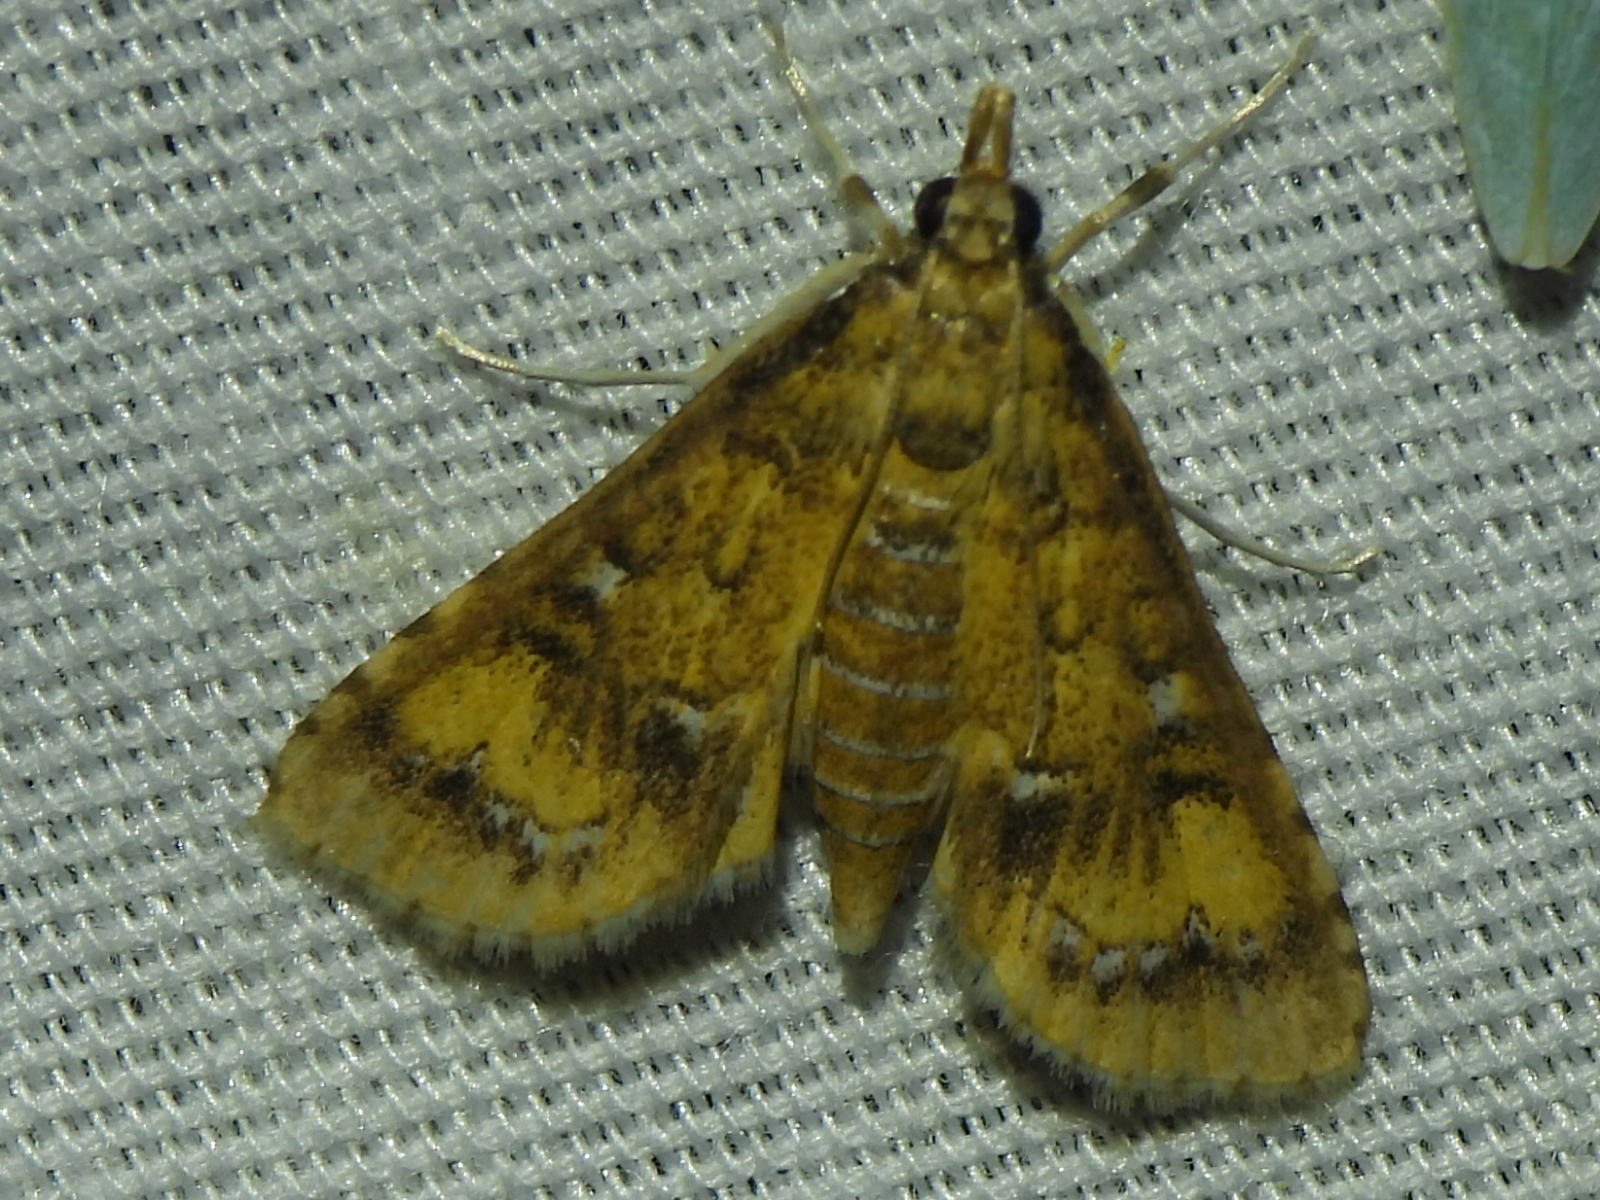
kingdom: Animalia
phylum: Arthropoda
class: Insecta
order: Lepidoptera
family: Crambidae
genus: Niphograpta
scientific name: Niphograpta albiguttalis
